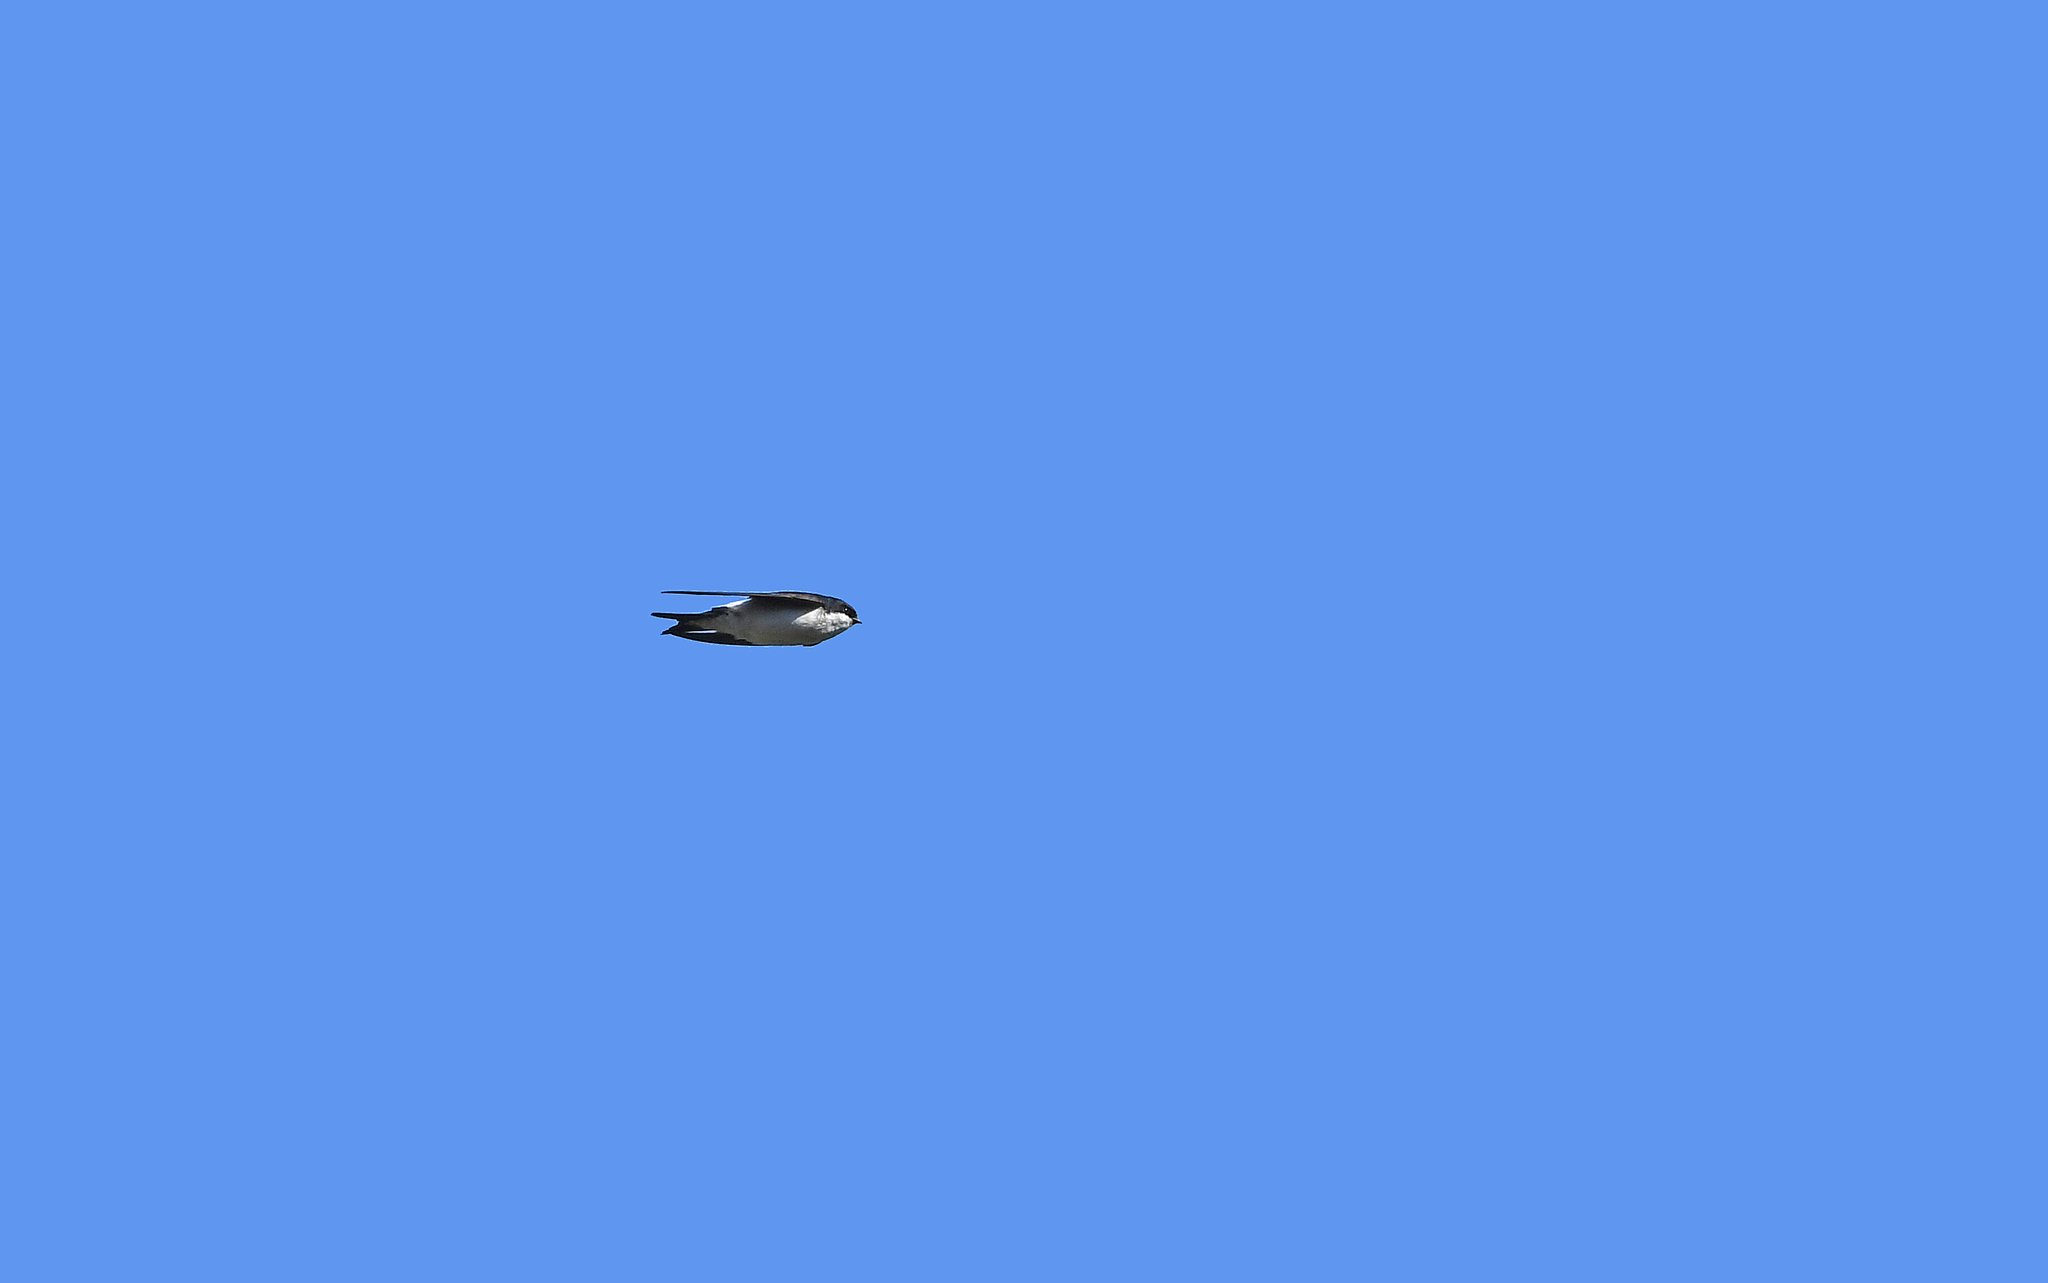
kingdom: Animalia
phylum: Chordata
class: Aves
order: Passeriformes
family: Hirundinidae
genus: Delichon
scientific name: Delichon urbicum
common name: Common house martin
